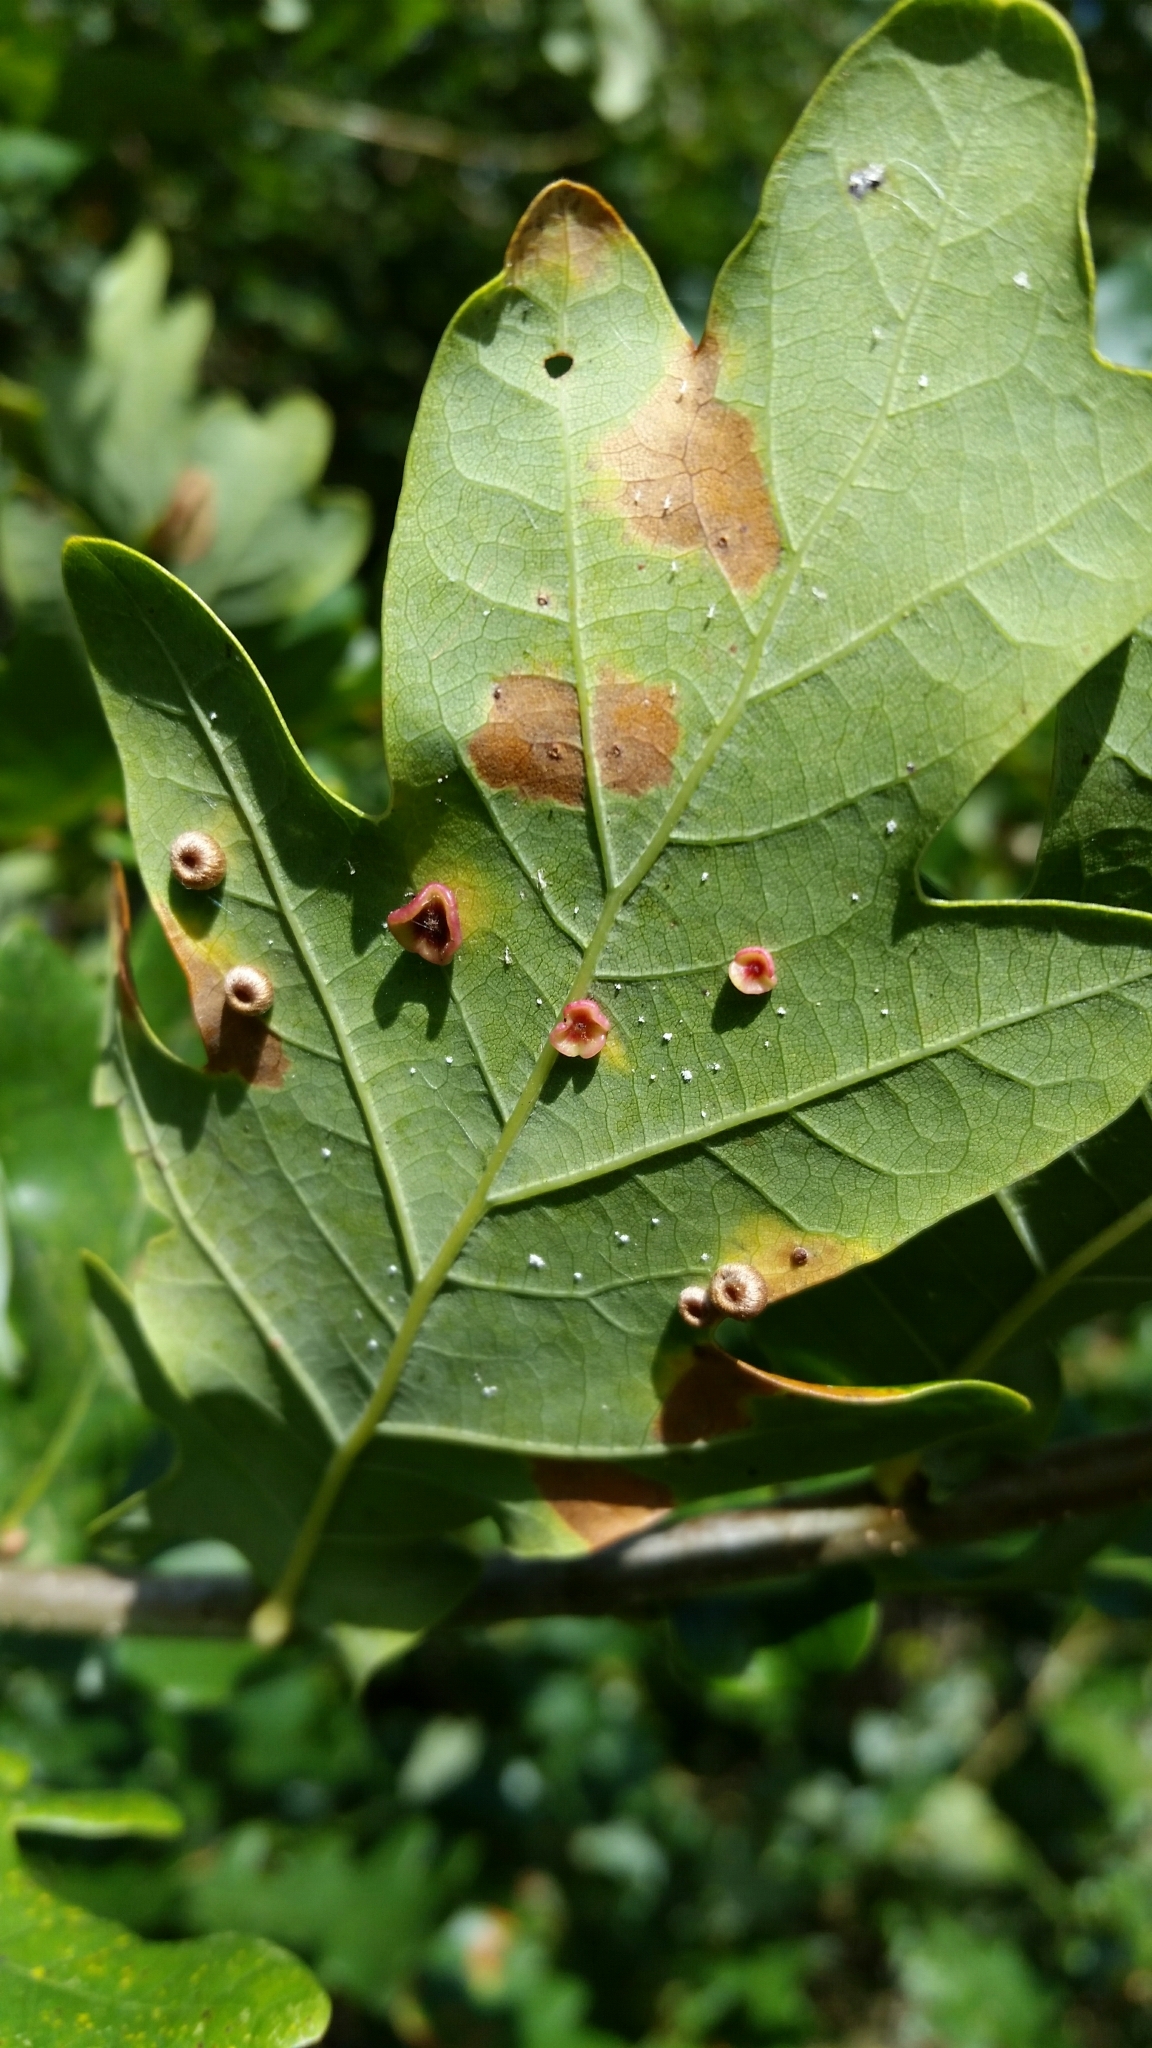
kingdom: Animalia
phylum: Arthropoda
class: Insecta
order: Hymenoptera
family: Cynipidae
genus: Neuroterus
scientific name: Neuroterus albipes
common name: Smooth spangle gall
